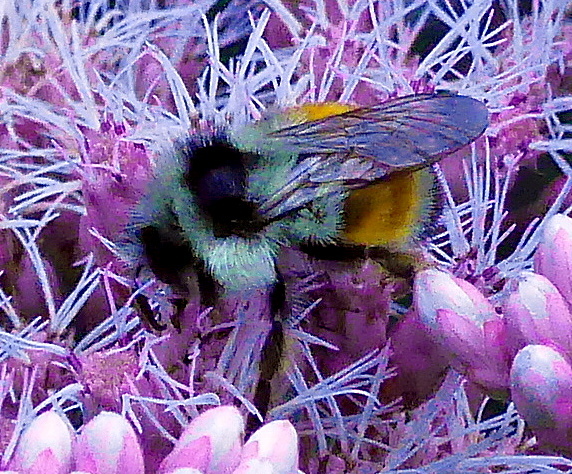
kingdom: Animalia
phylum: Arthropoda
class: Insecta
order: Hymenoptera
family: Apidae
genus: Bombus
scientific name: Bombus ternarius
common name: Tri-colored bumble bee
